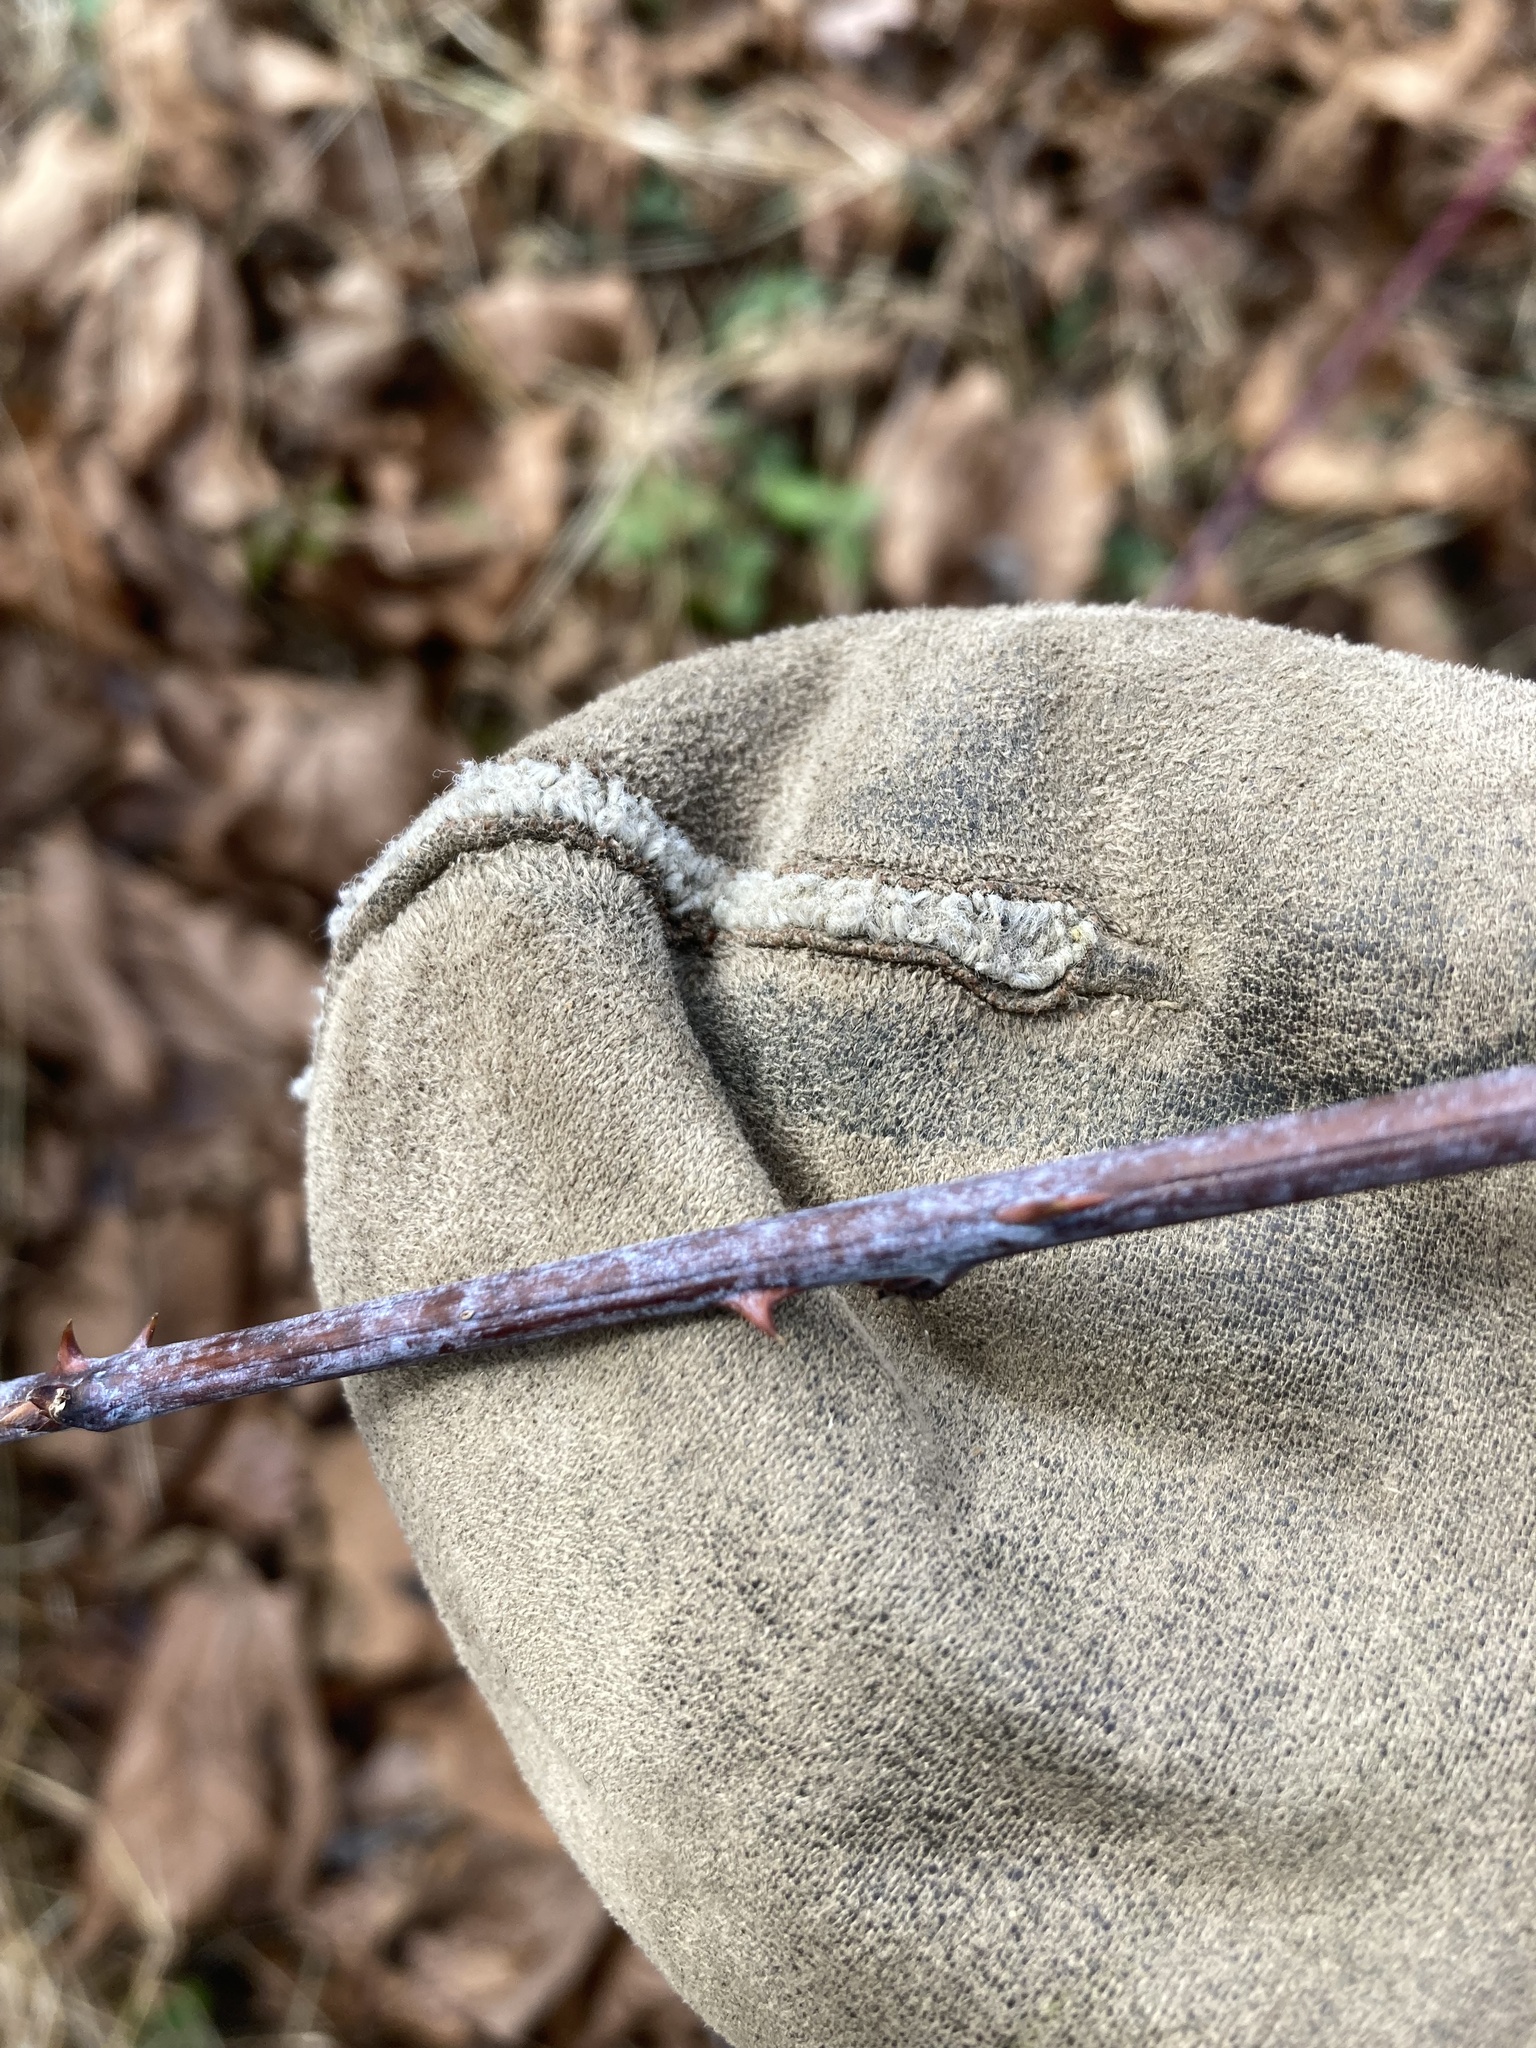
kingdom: Plantae
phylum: Tracheophyta
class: Magnoliopsida
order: Rosales
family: Rosaceae
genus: Rubus
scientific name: Rubus occidentalis
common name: Black raspberry
